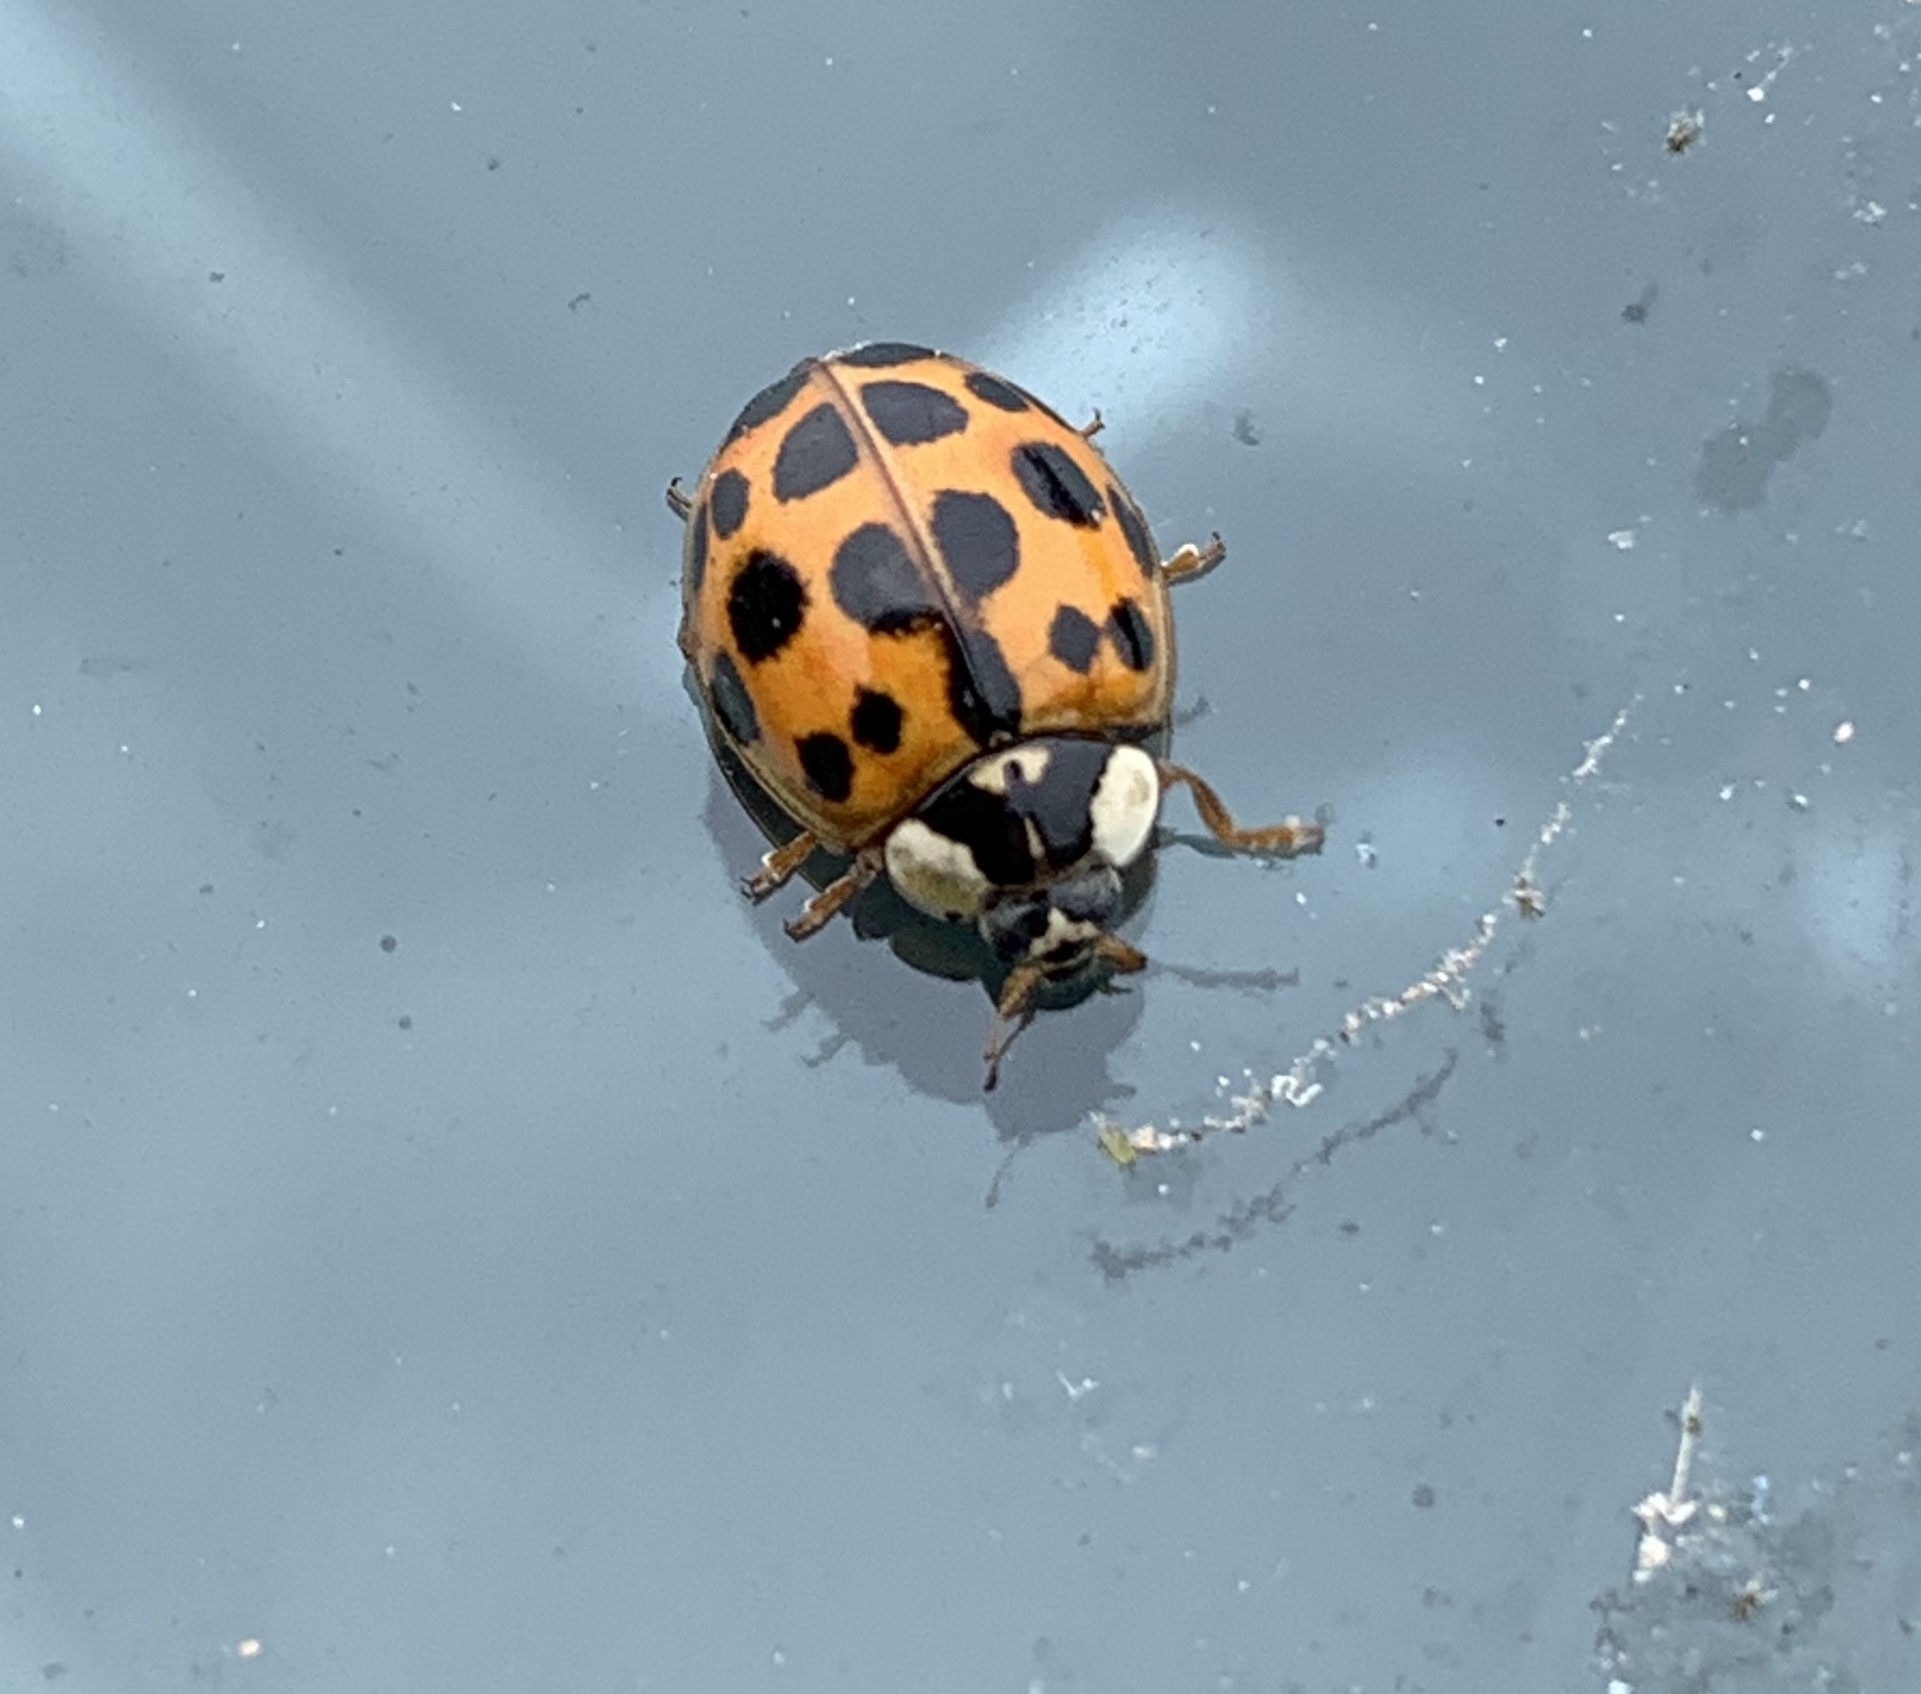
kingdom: Animalia
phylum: Arthropoda
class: Insecta
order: Coleoptera
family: Coccinellidae
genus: Harmonia
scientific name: Harmonia axyridis
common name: Harlequin ladybird
